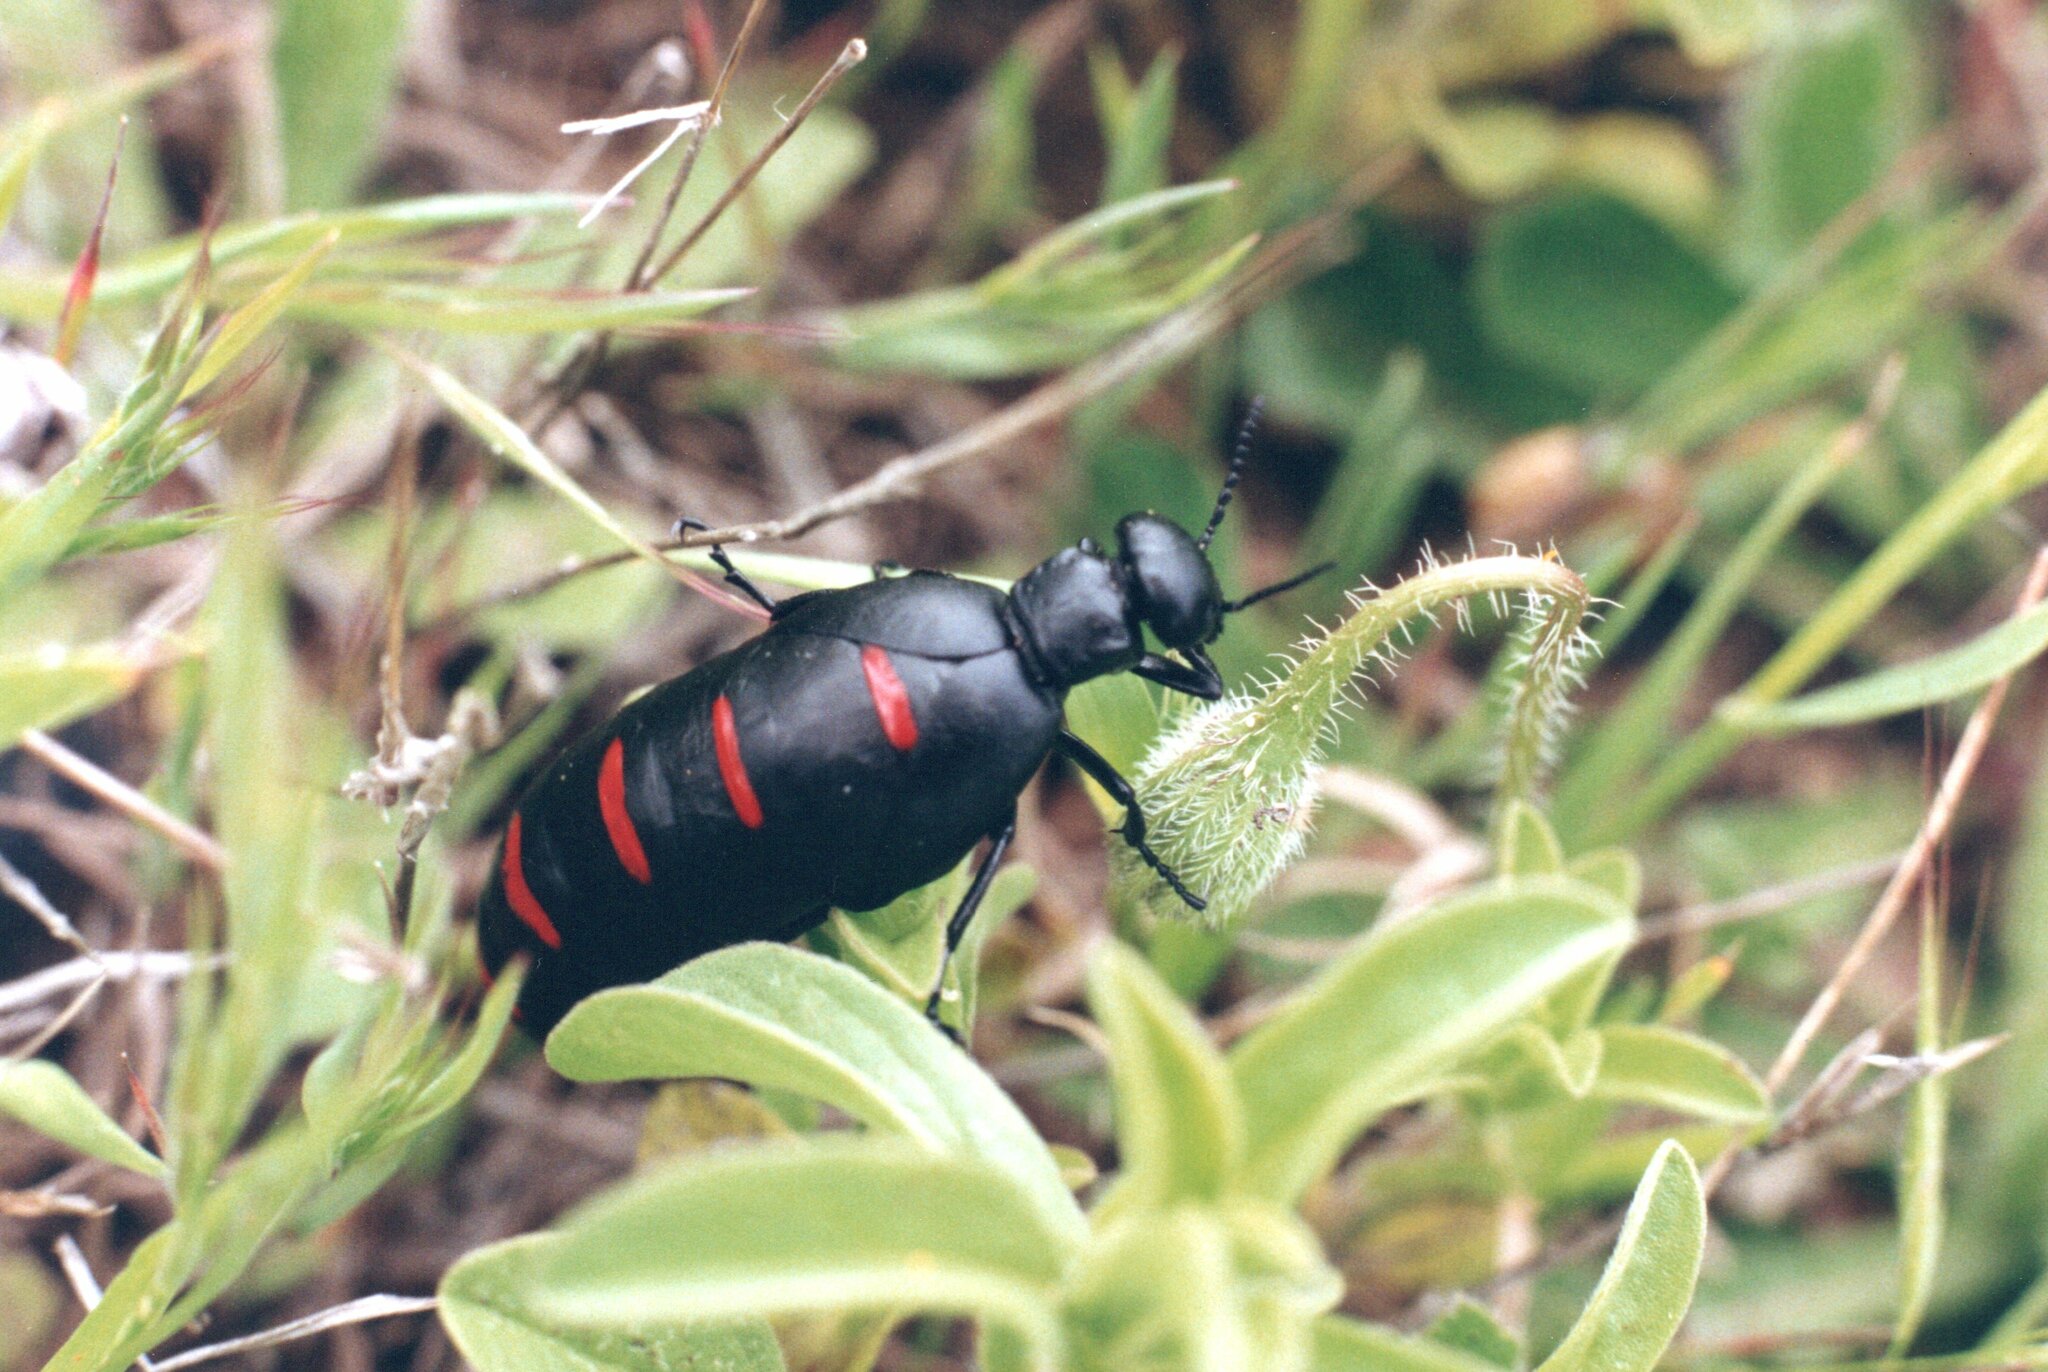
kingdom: Animalia
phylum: Arthropoda
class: Insecta
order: Coleoptera
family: Meloidae
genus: Berberomeloe
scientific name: Berberomeloe payoyo
